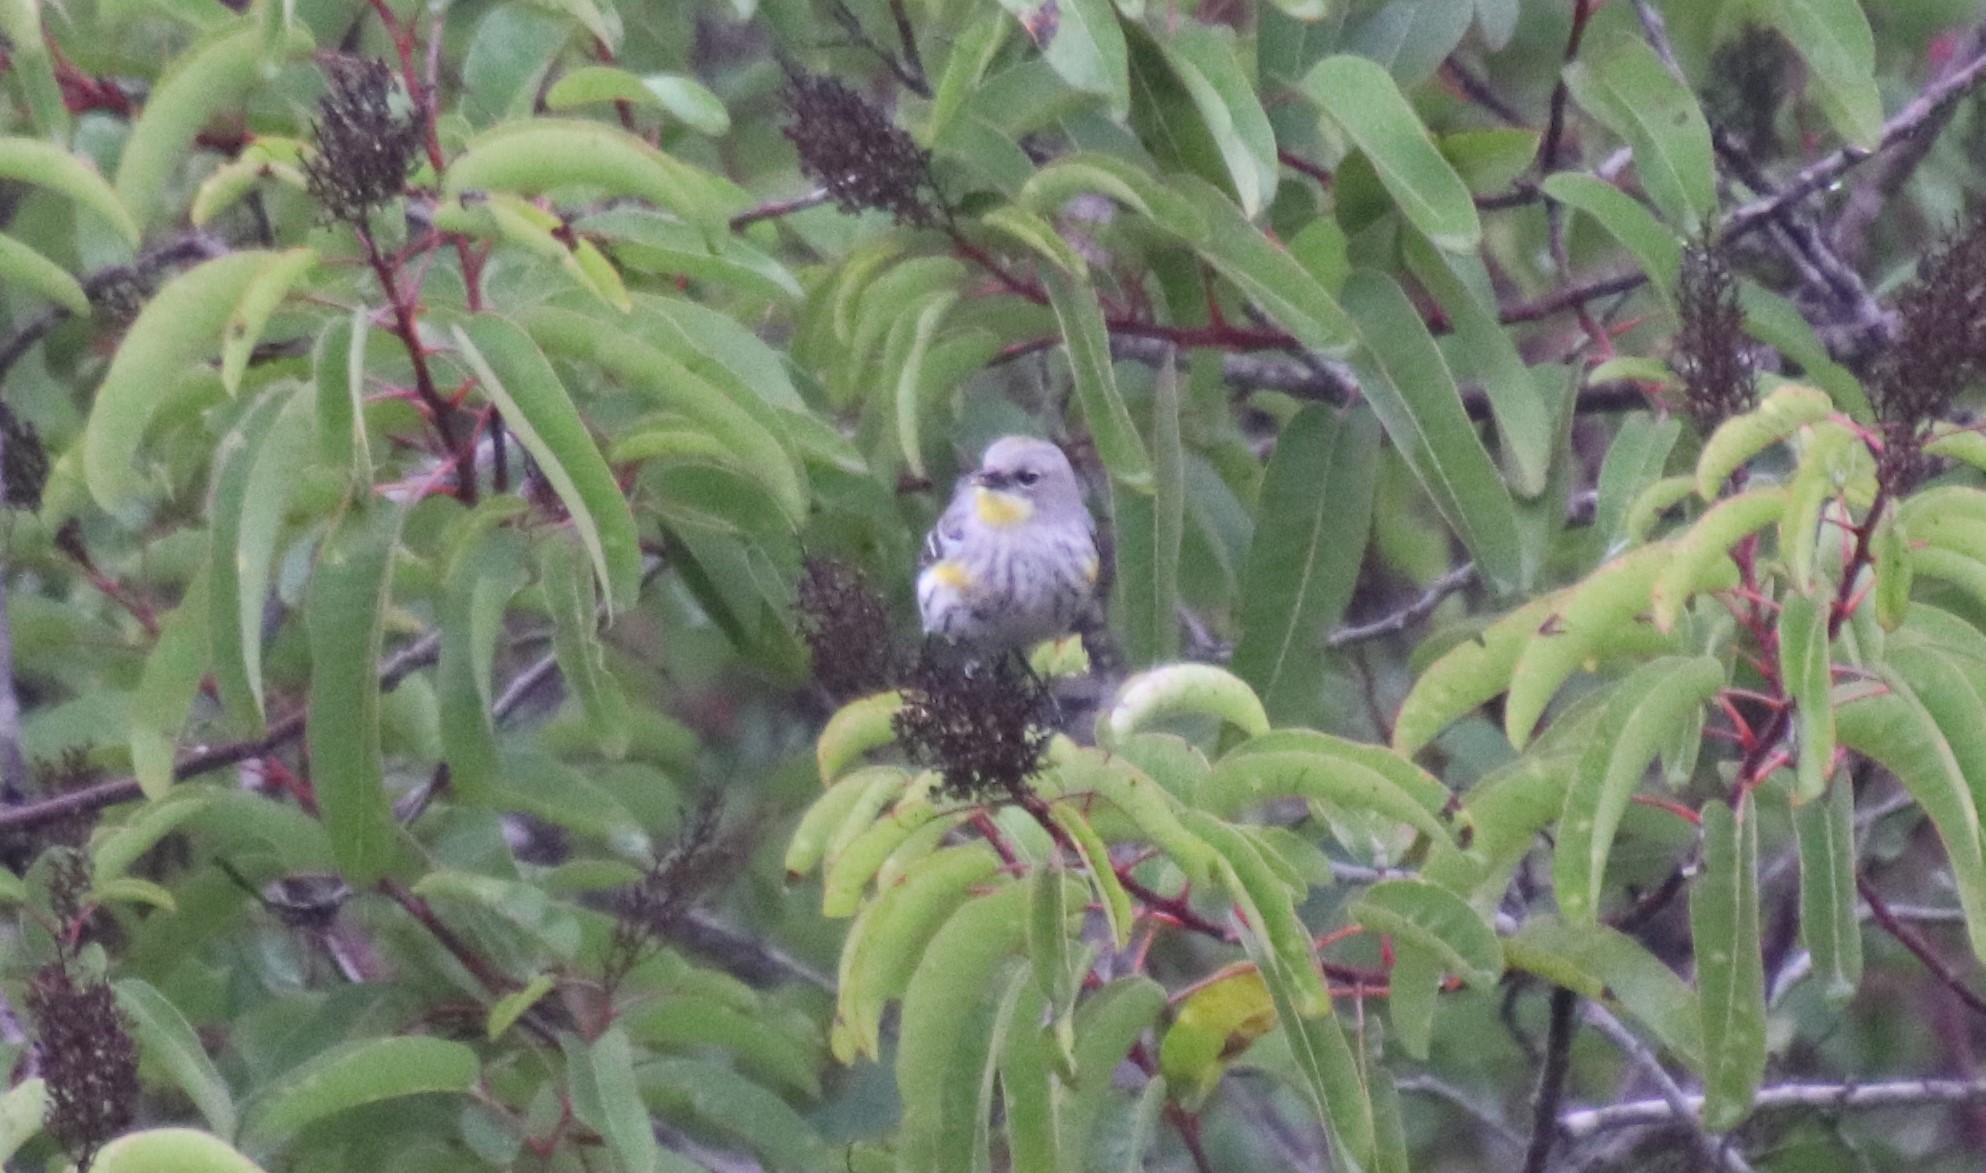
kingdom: Animalia
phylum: Chordata
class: Aves
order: Passeriformes
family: Parulidae
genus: Setophaga
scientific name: Setophaga coronata
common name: Myrtle warbler
